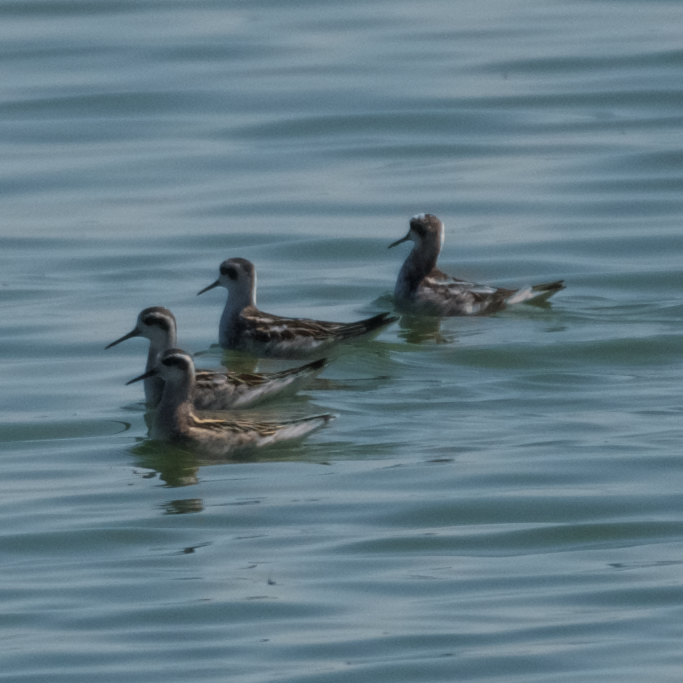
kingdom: Animalia
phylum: Chordata
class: Aves
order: Charadriiformes
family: Scolopacidae
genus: Phalaropus
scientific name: Phalaropus lobatus
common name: Red-necked phalarope
